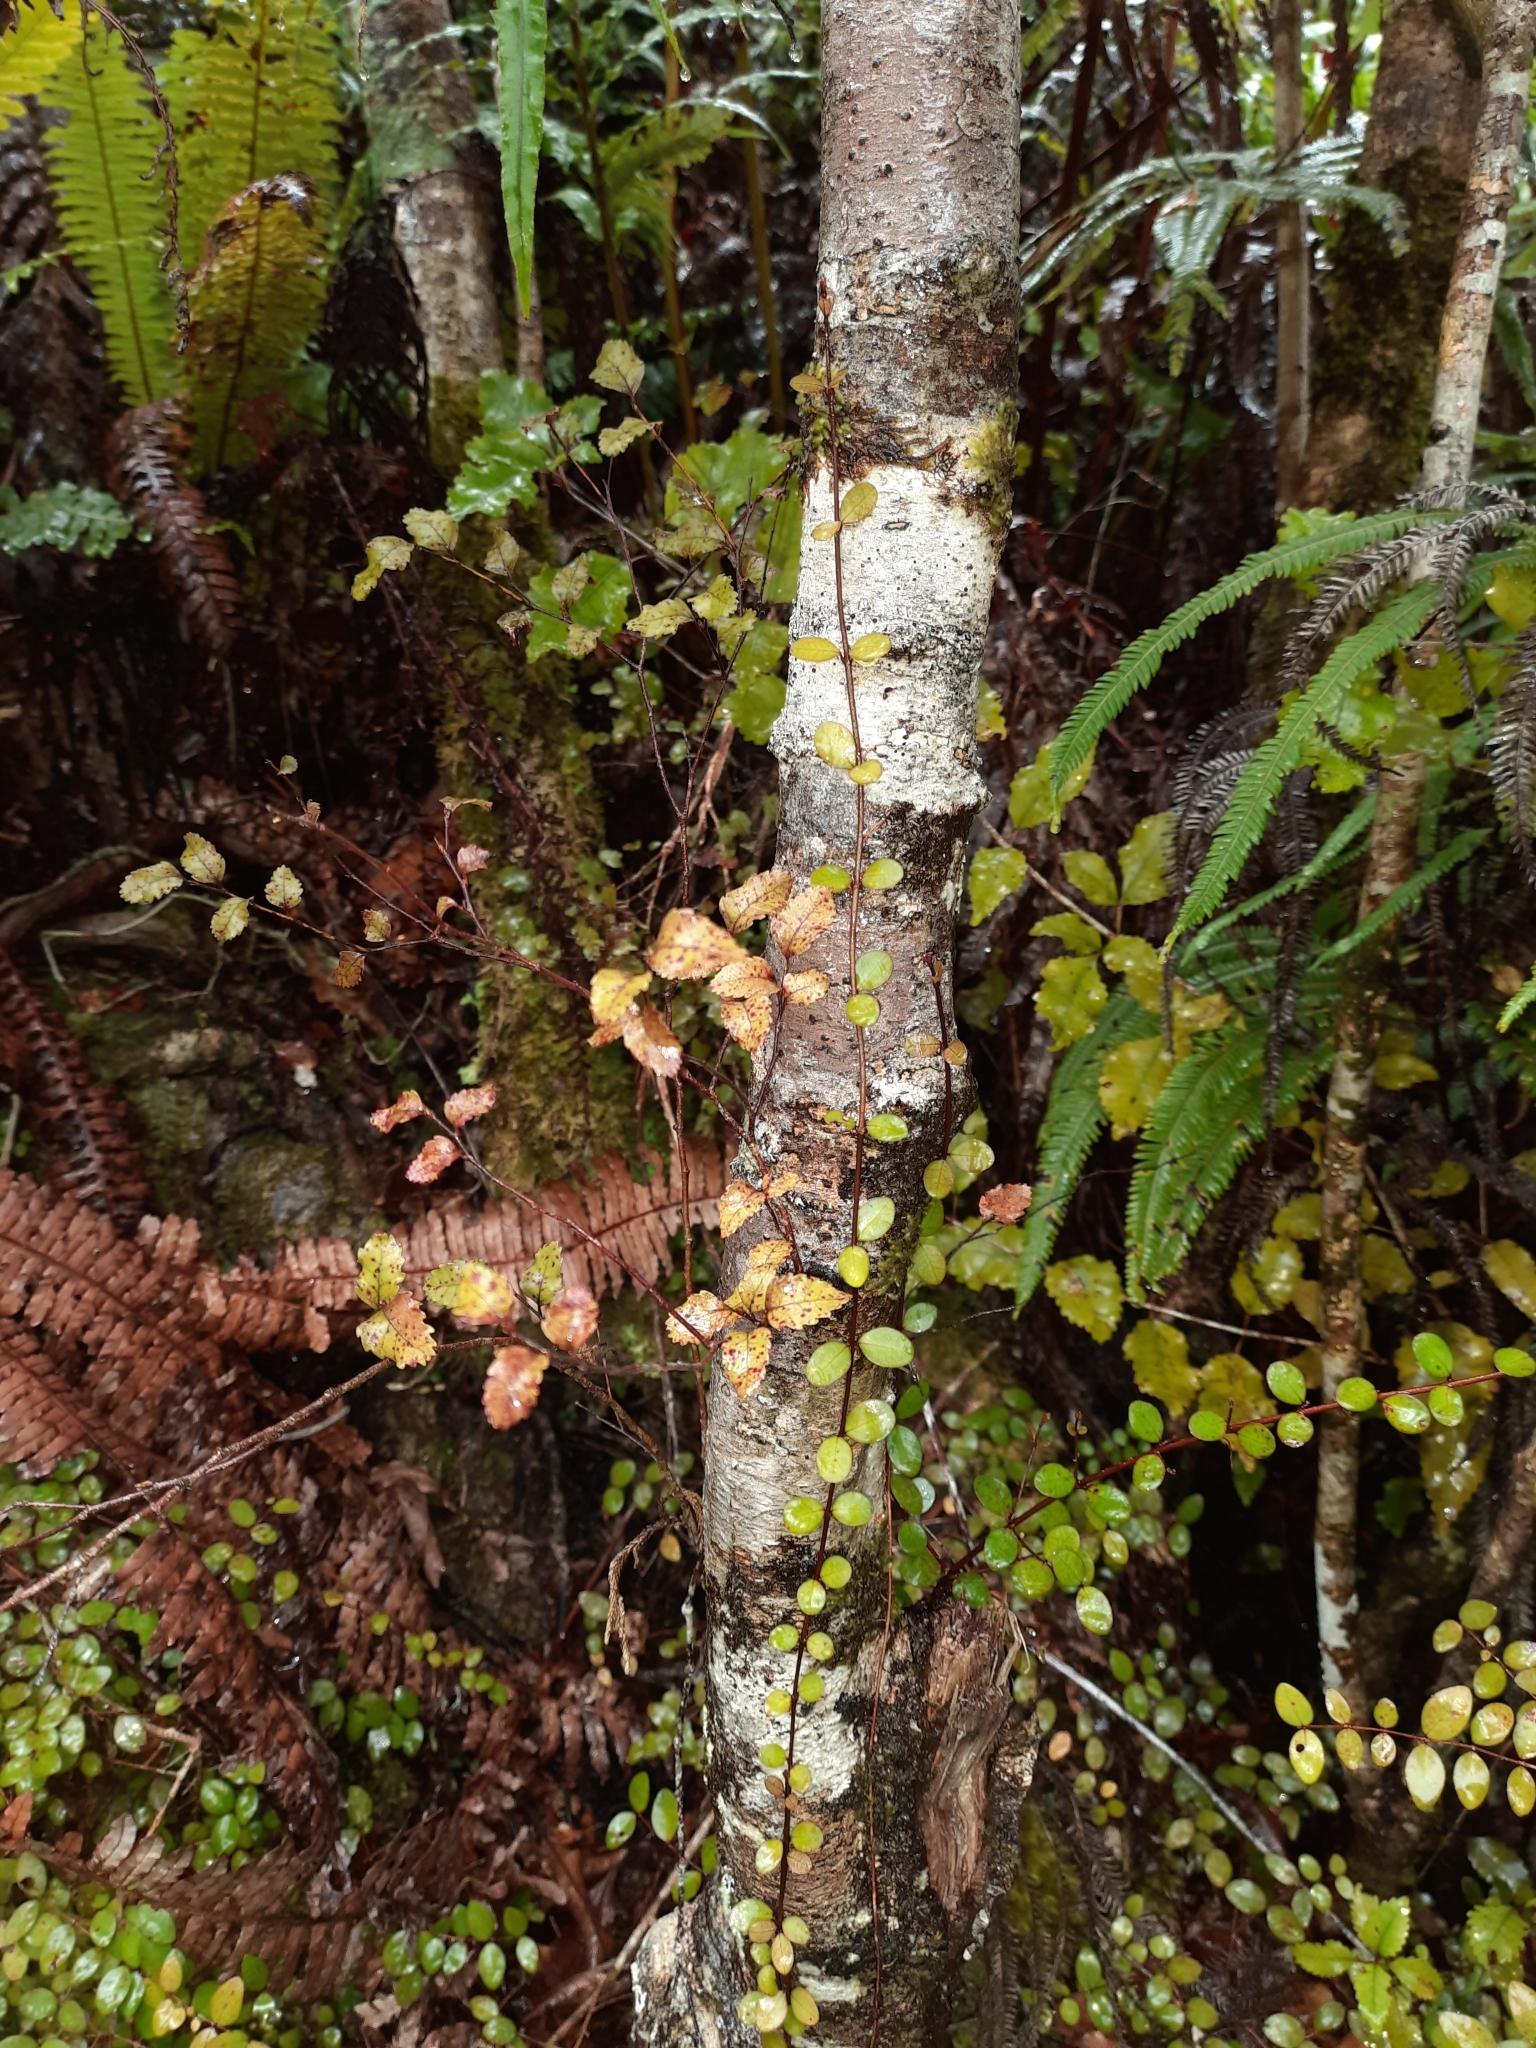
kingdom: Plantae
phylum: Tracheophyta
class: Magnoliopsida
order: Fagales
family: Nothofagaceae
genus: Nothofagus
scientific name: Nothofagus truncata
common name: Hard beech
